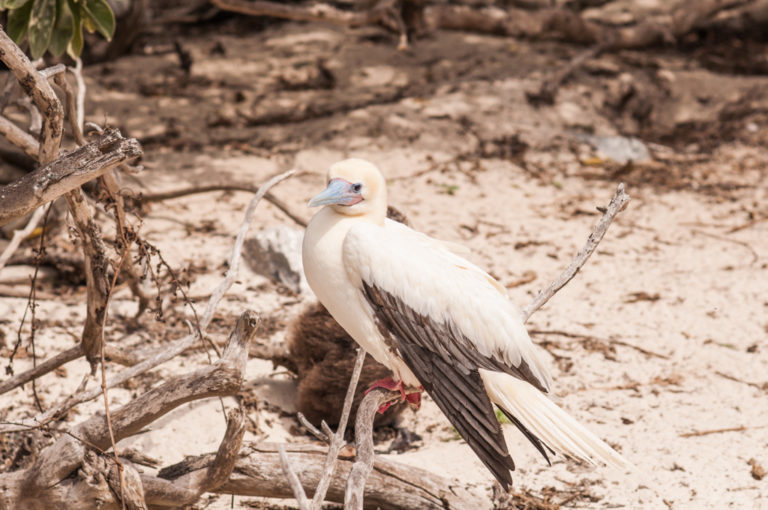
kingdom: Animalia
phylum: Chordata
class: Aves
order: Suliformes
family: Sulidae
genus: Sula
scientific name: Sula sula
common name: Red-footed booby
